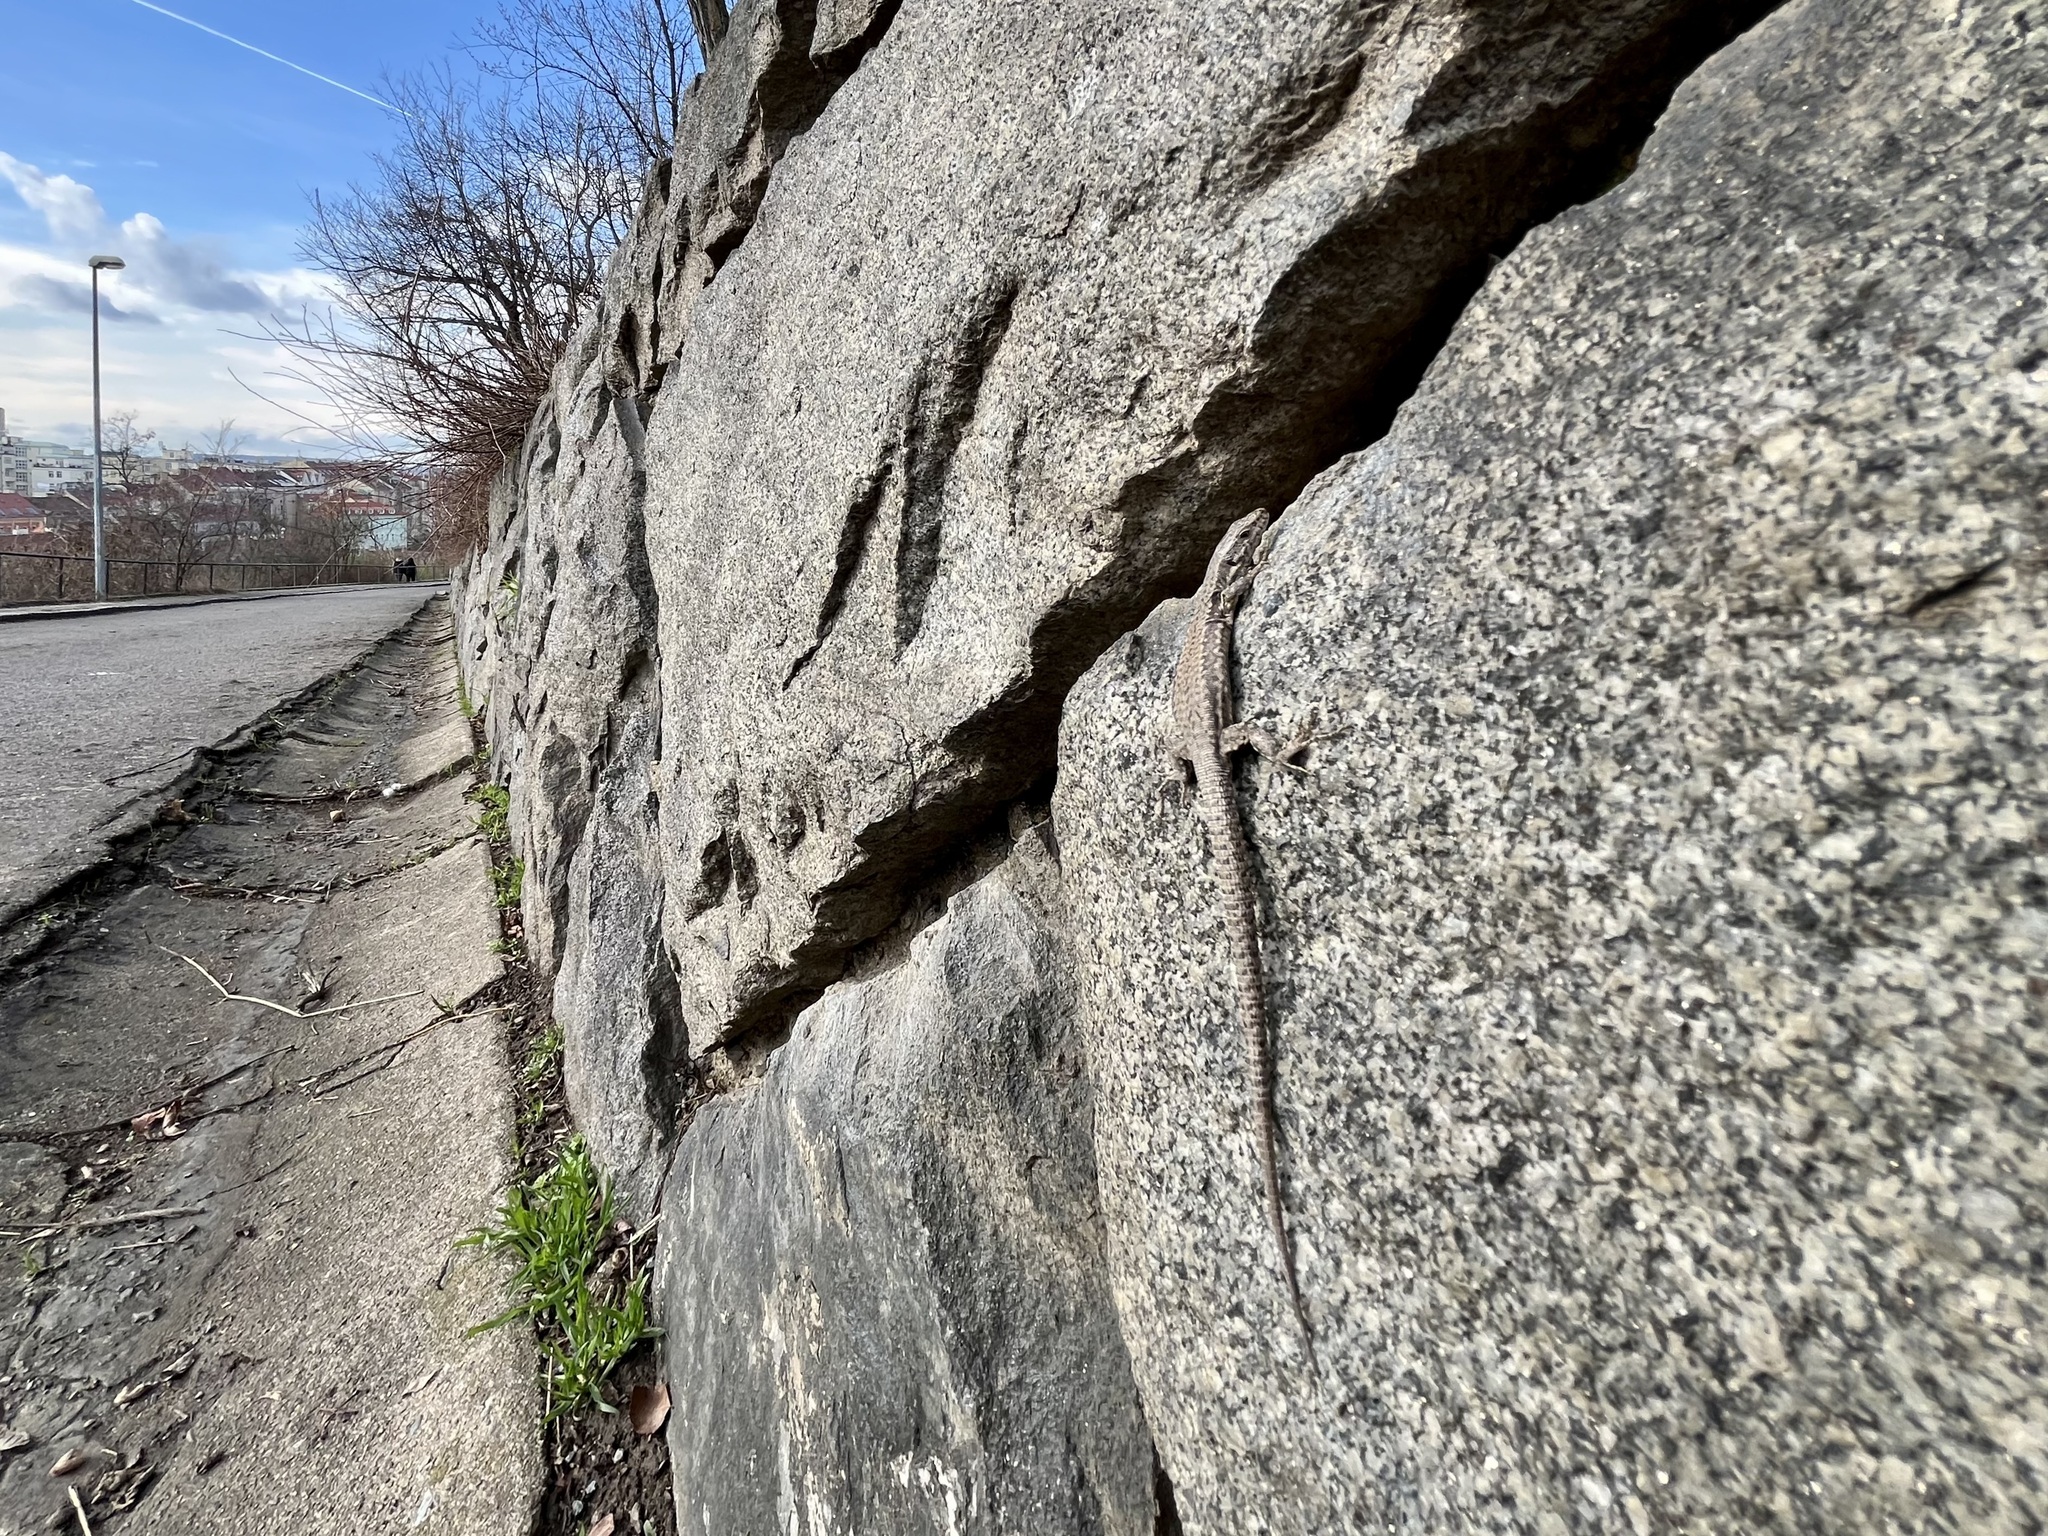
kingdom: Animalia
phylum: Chordata
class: Squamata
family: Lacertidae
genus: Podarcis
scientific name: Podarcis muralis
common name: Common wall lizard
